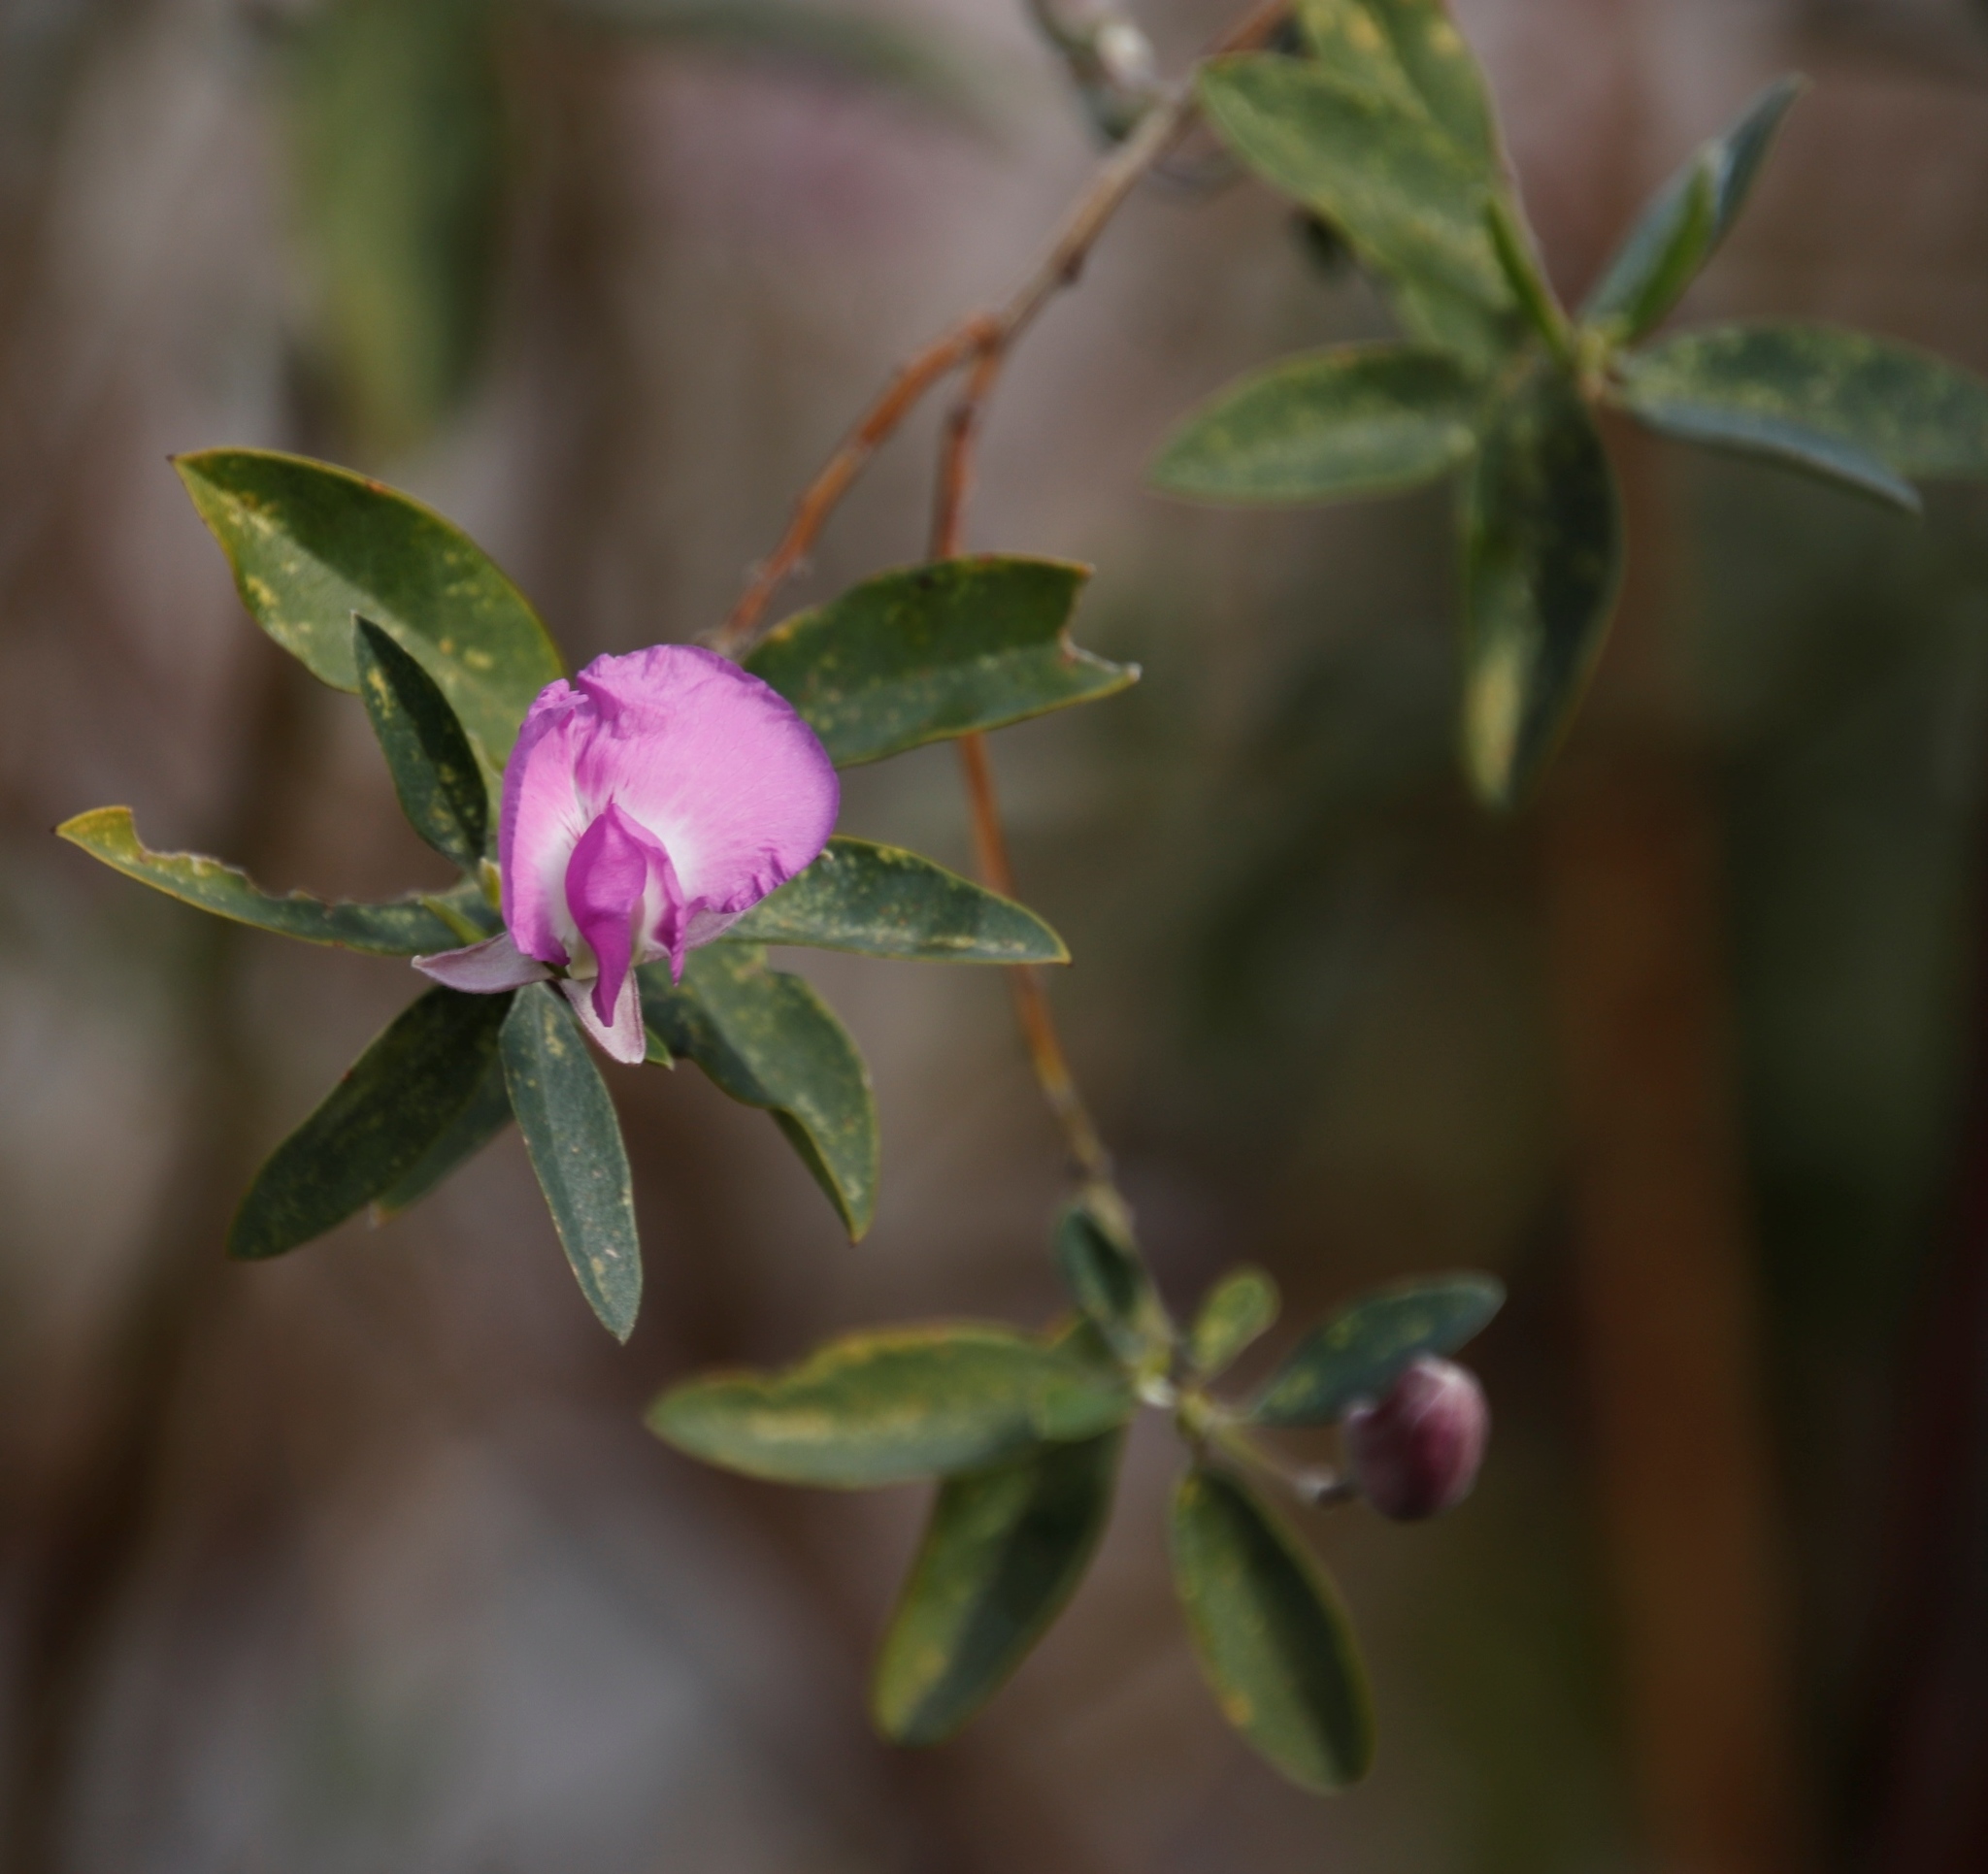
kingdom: Plantae
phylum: Tracheophyta
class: Magnoliopsida
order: Fabales
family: Fabaceae
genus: Podalyria
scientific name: Podalyria calyptrata
